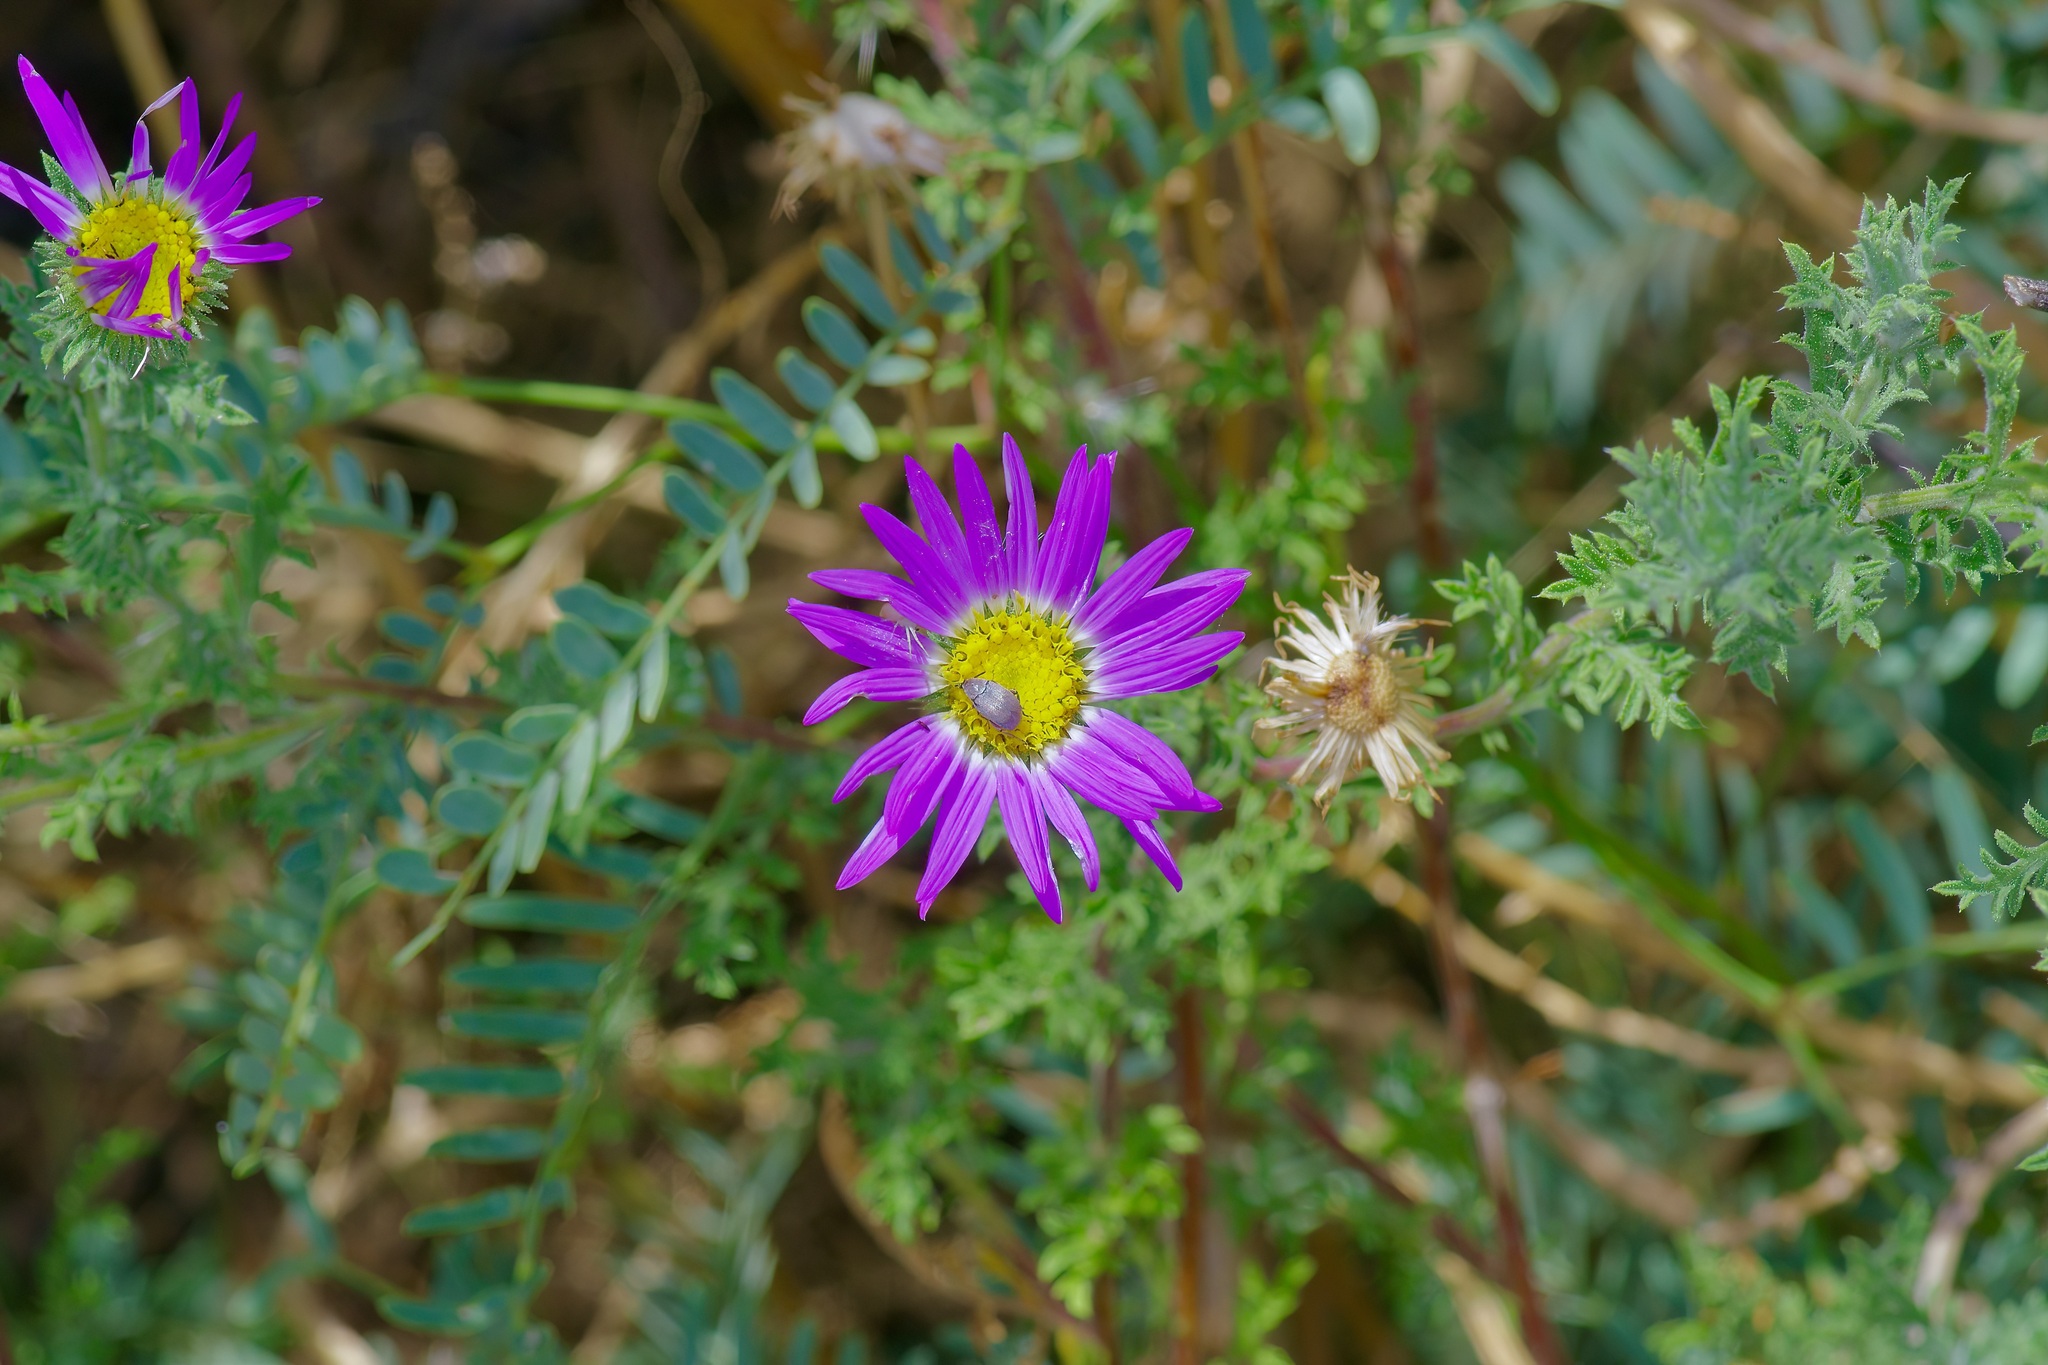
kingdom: Plantae
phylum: Tracheophyta
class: Magnoliopsida
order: Asterales
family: Asteraceae
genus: Machaeranthera
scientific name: Machaeranthera tanacetifolia
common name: Tansy-aster
